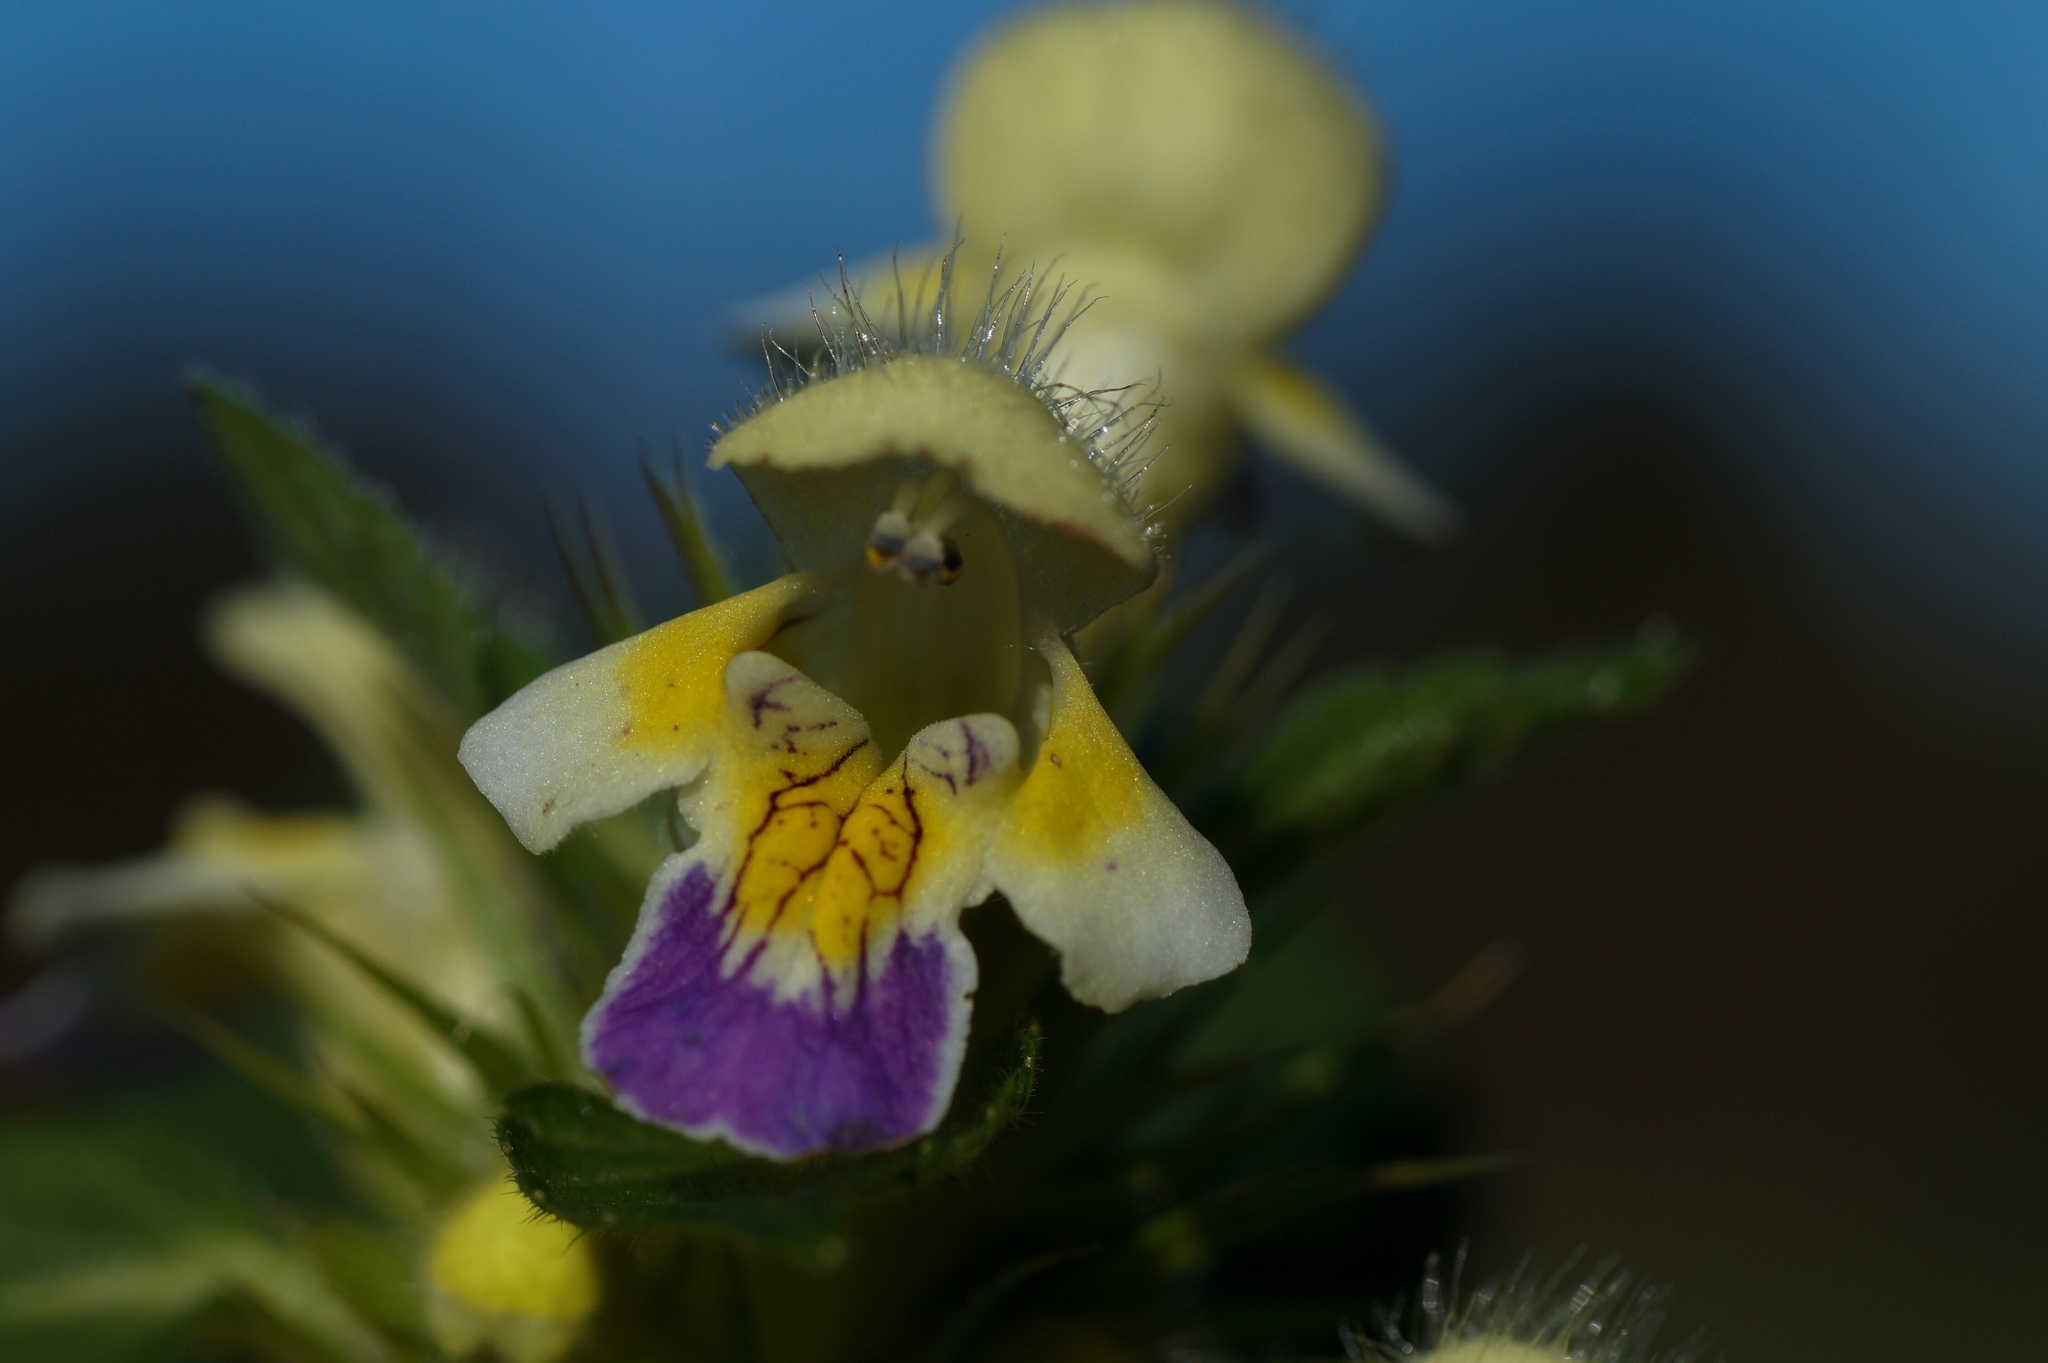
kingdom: Plantae
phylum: Tracheophyta
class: Magnoliopsida
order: Lamiales
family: Lamiaceae
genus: Galeopsis
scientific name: Galeopsis speciosa
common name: Large-flowered hemp-nettle
